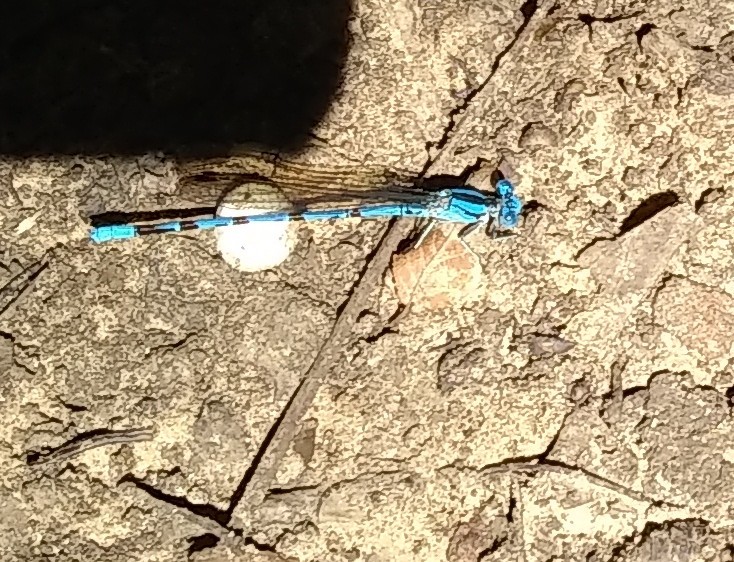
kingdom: Animalia
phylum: Arthropoda
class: Insecta
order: Odonata
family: Coenagrionidae
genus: Argia
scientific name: Argia funebris
